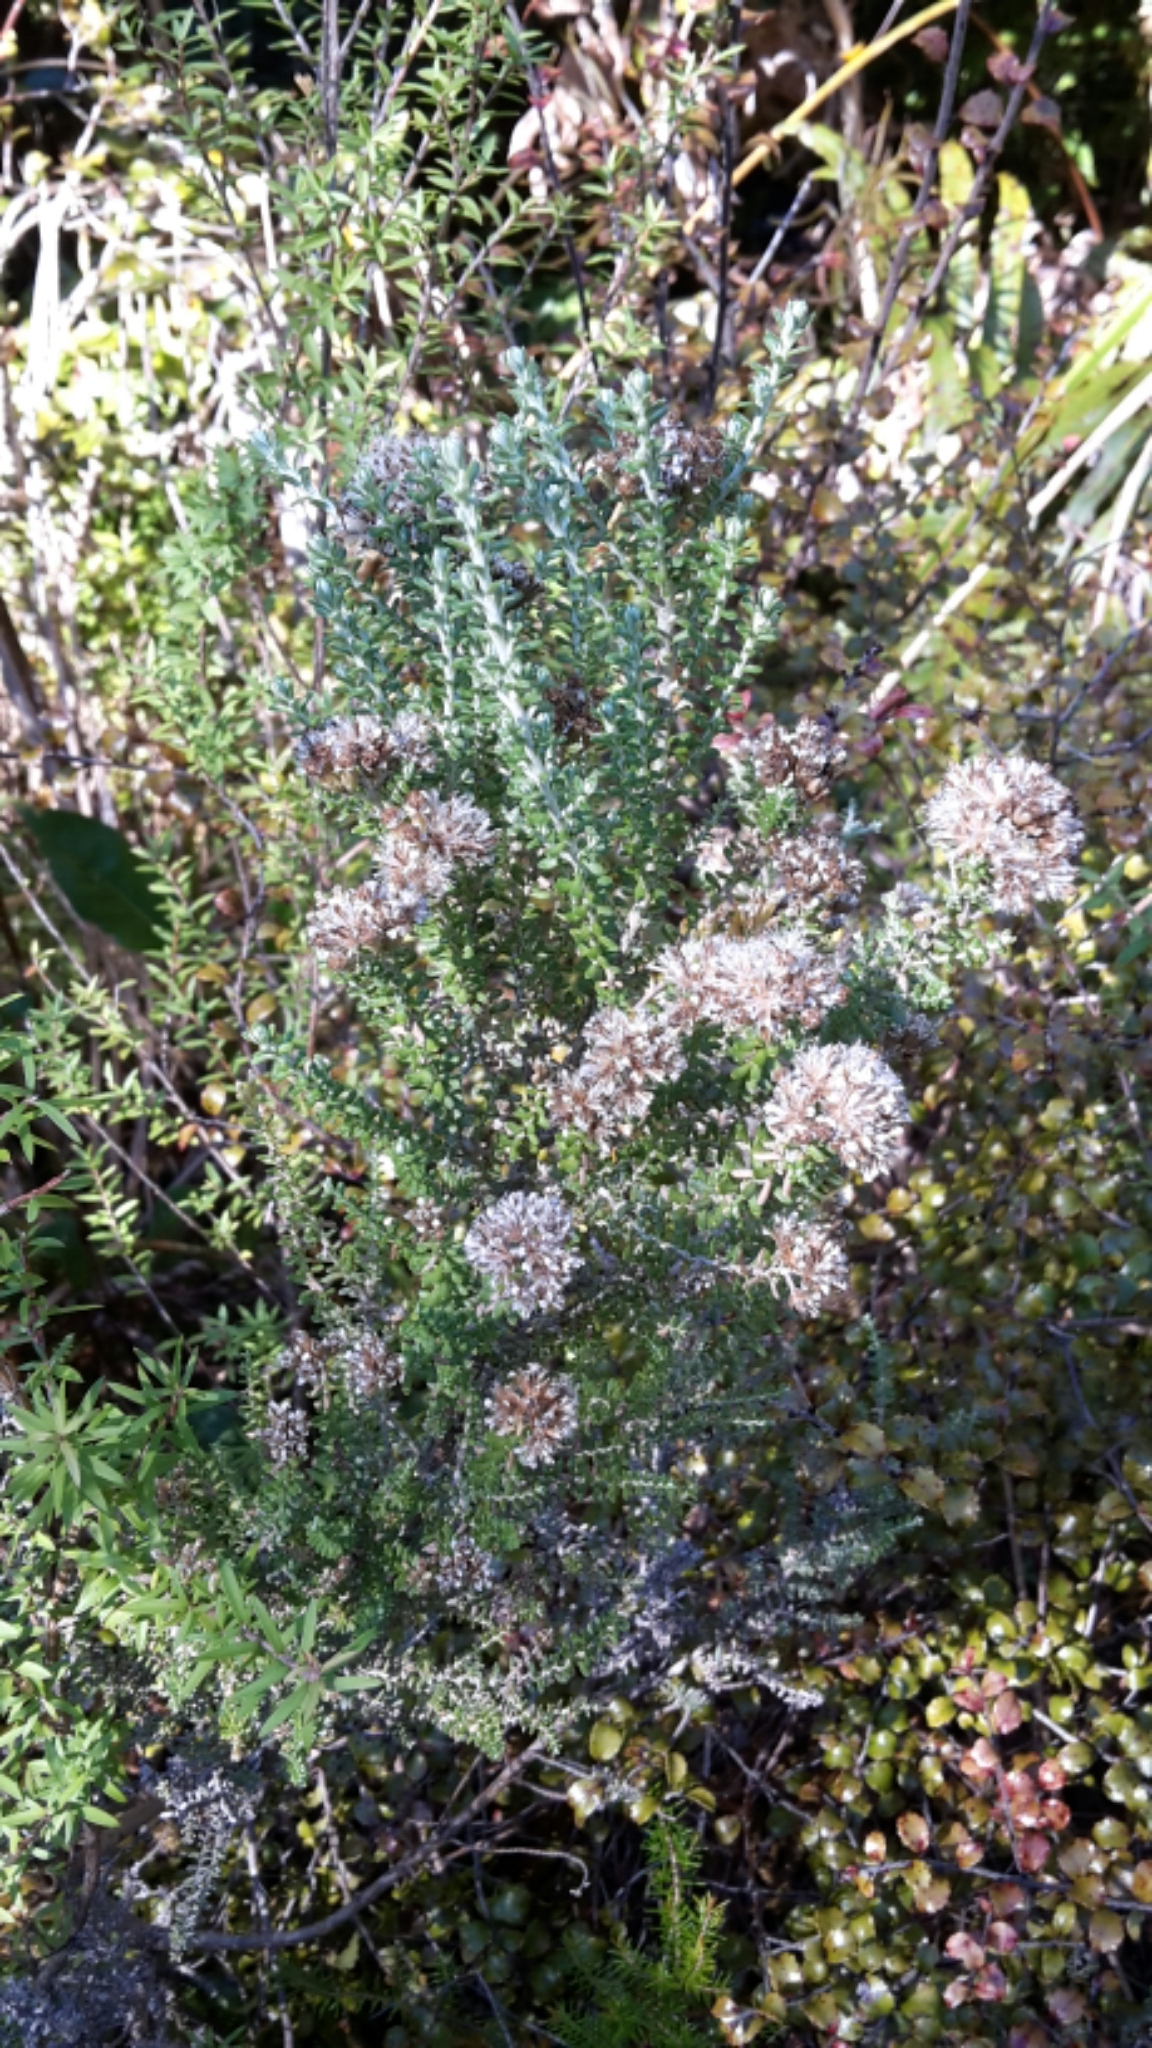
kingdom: Plantae
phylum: Tracheophyta
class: Magnoliopsida
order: Asterales
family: Asteraceae
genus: Ozothamnus
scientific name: Ozothamnus leptophyllus
